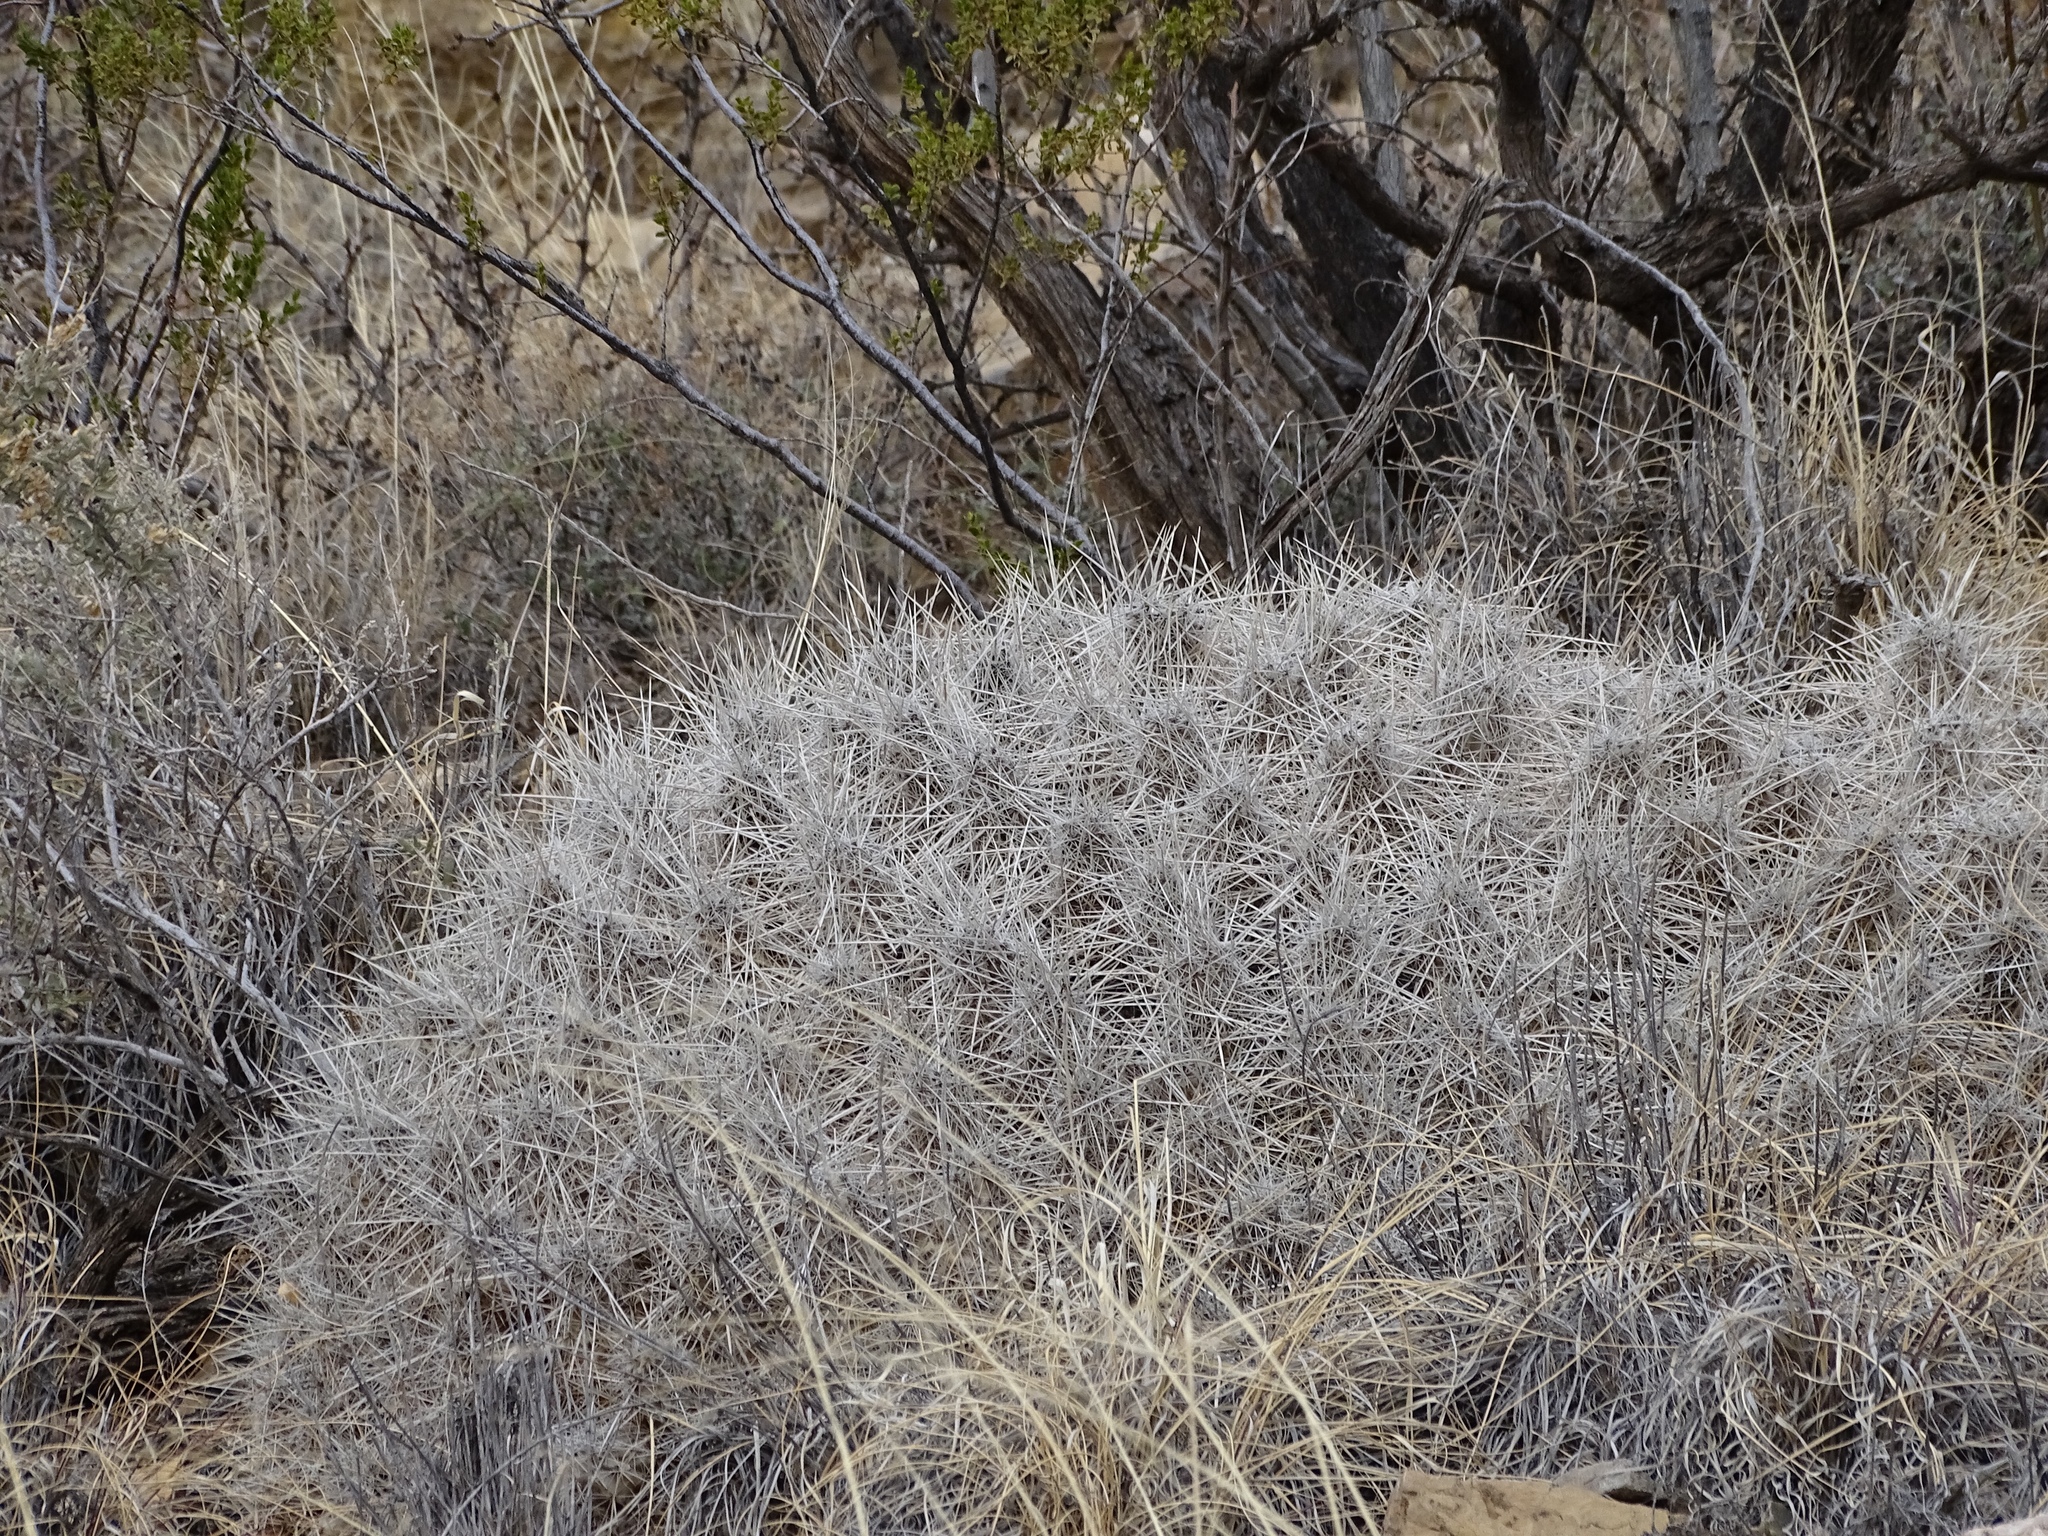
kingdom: Plantae
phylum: Tracheophyta
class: Magnoliopsida
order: Caryophyllales
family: Cactaceae
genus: Echinocereus
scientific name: Echinocereus stramineus
